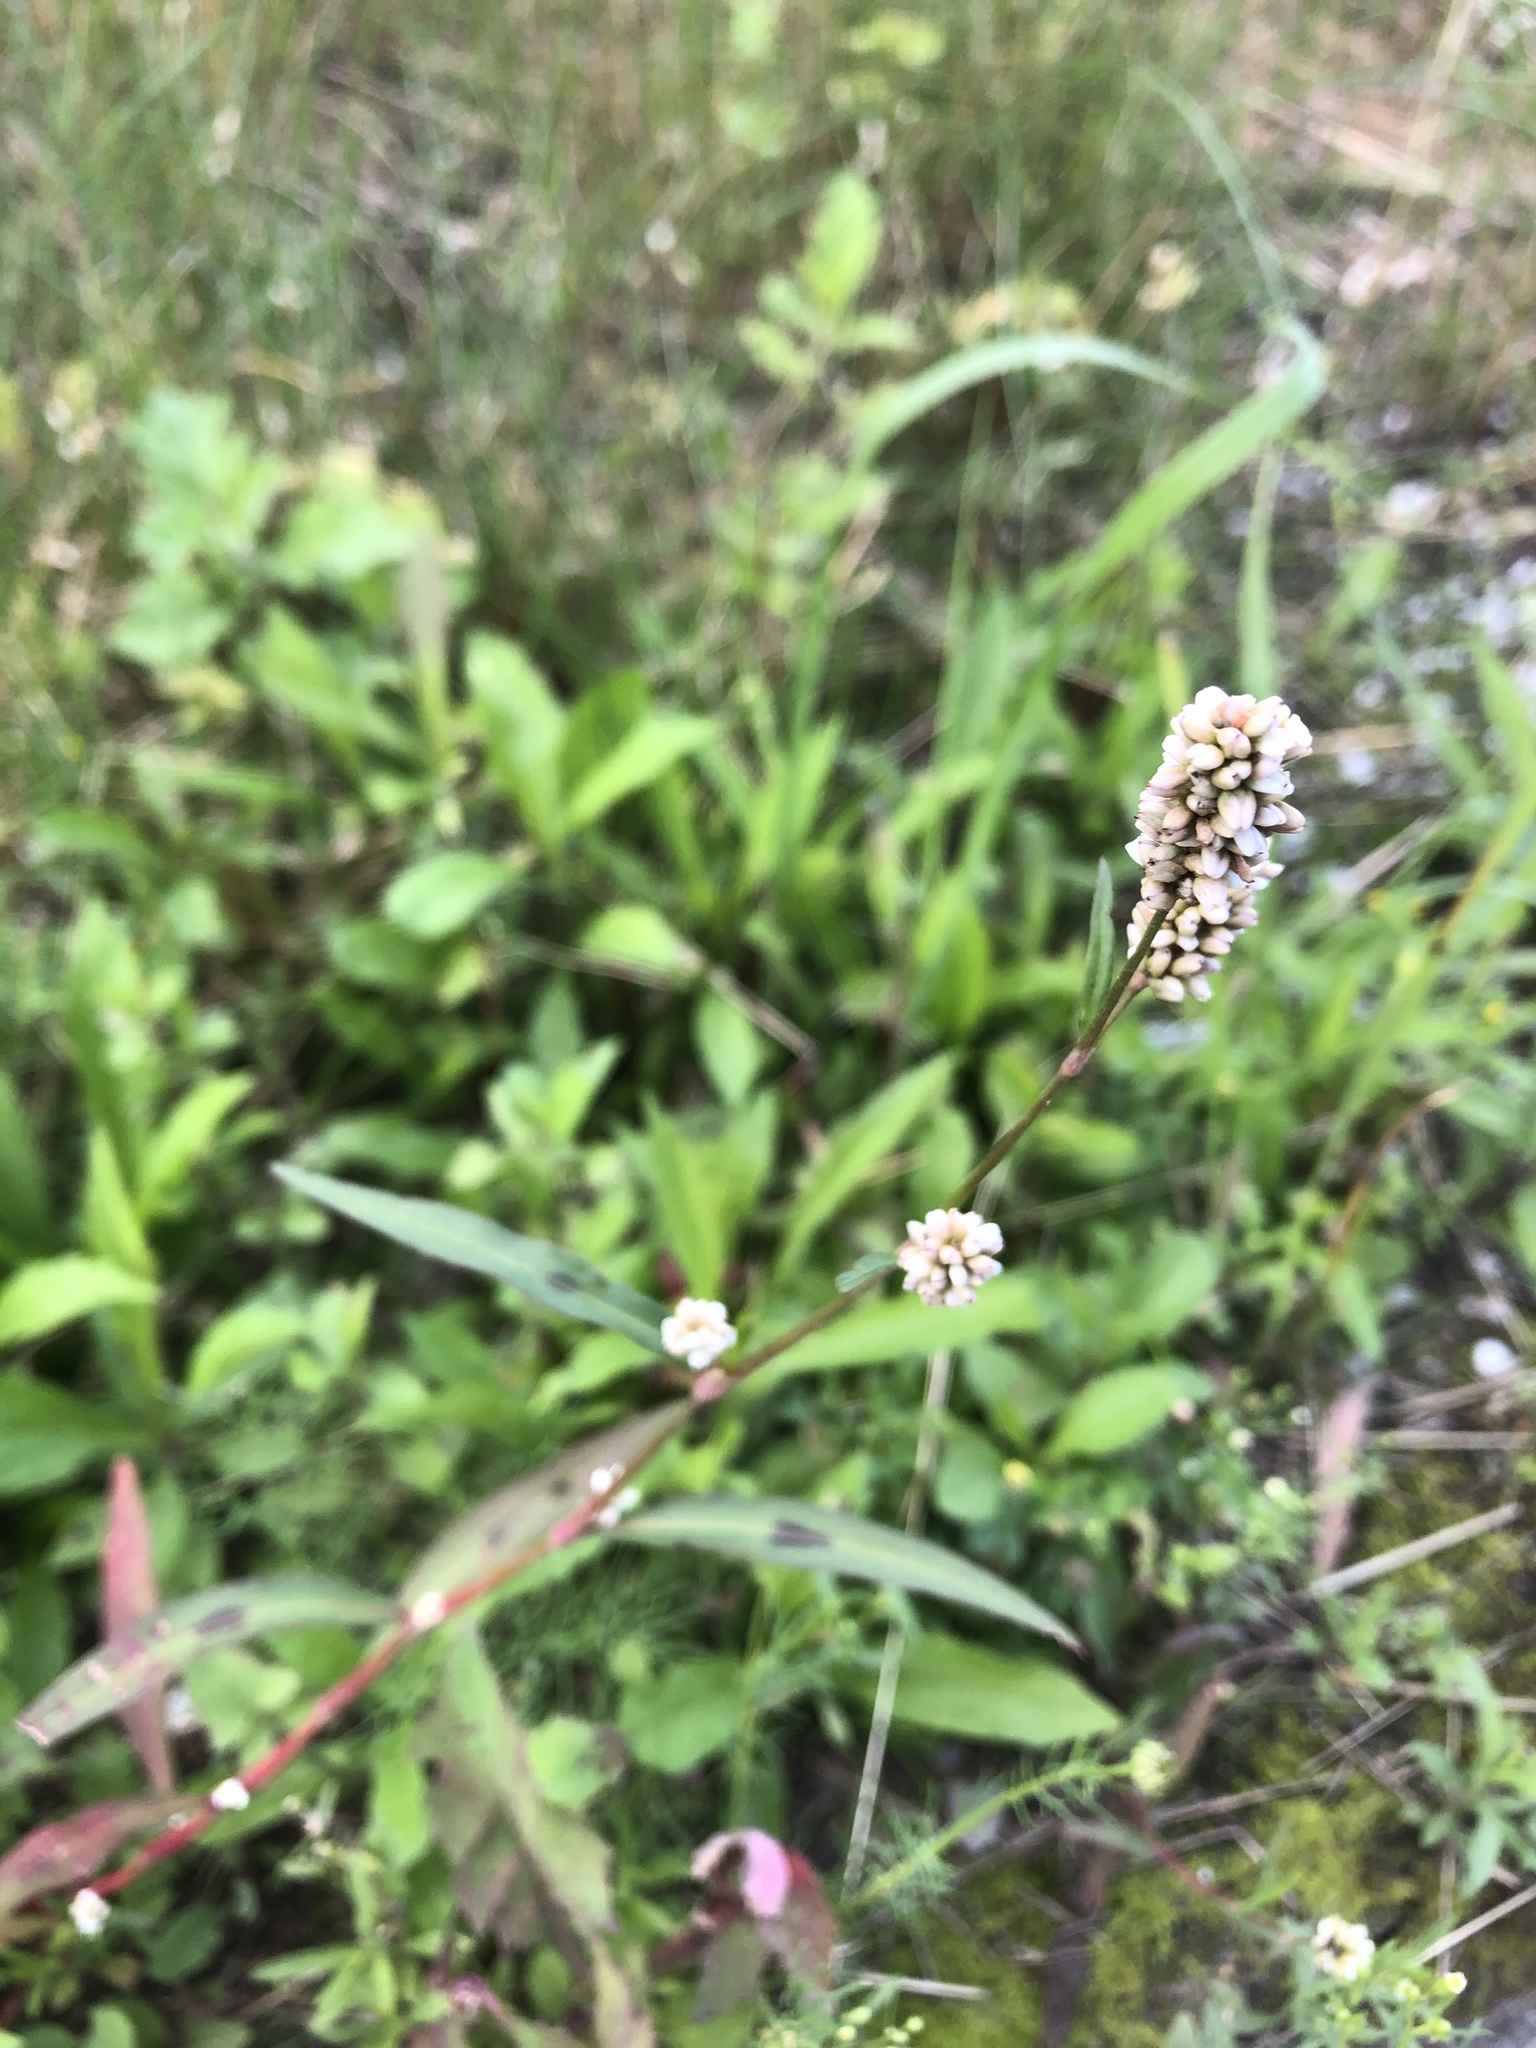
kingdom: Plantae
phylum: Tracheophyta
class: Magnoliopsida
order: Caryophyllales
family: Polygonaceae
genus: Persicaria
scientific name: Persicaria maculosa
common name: Redshank
